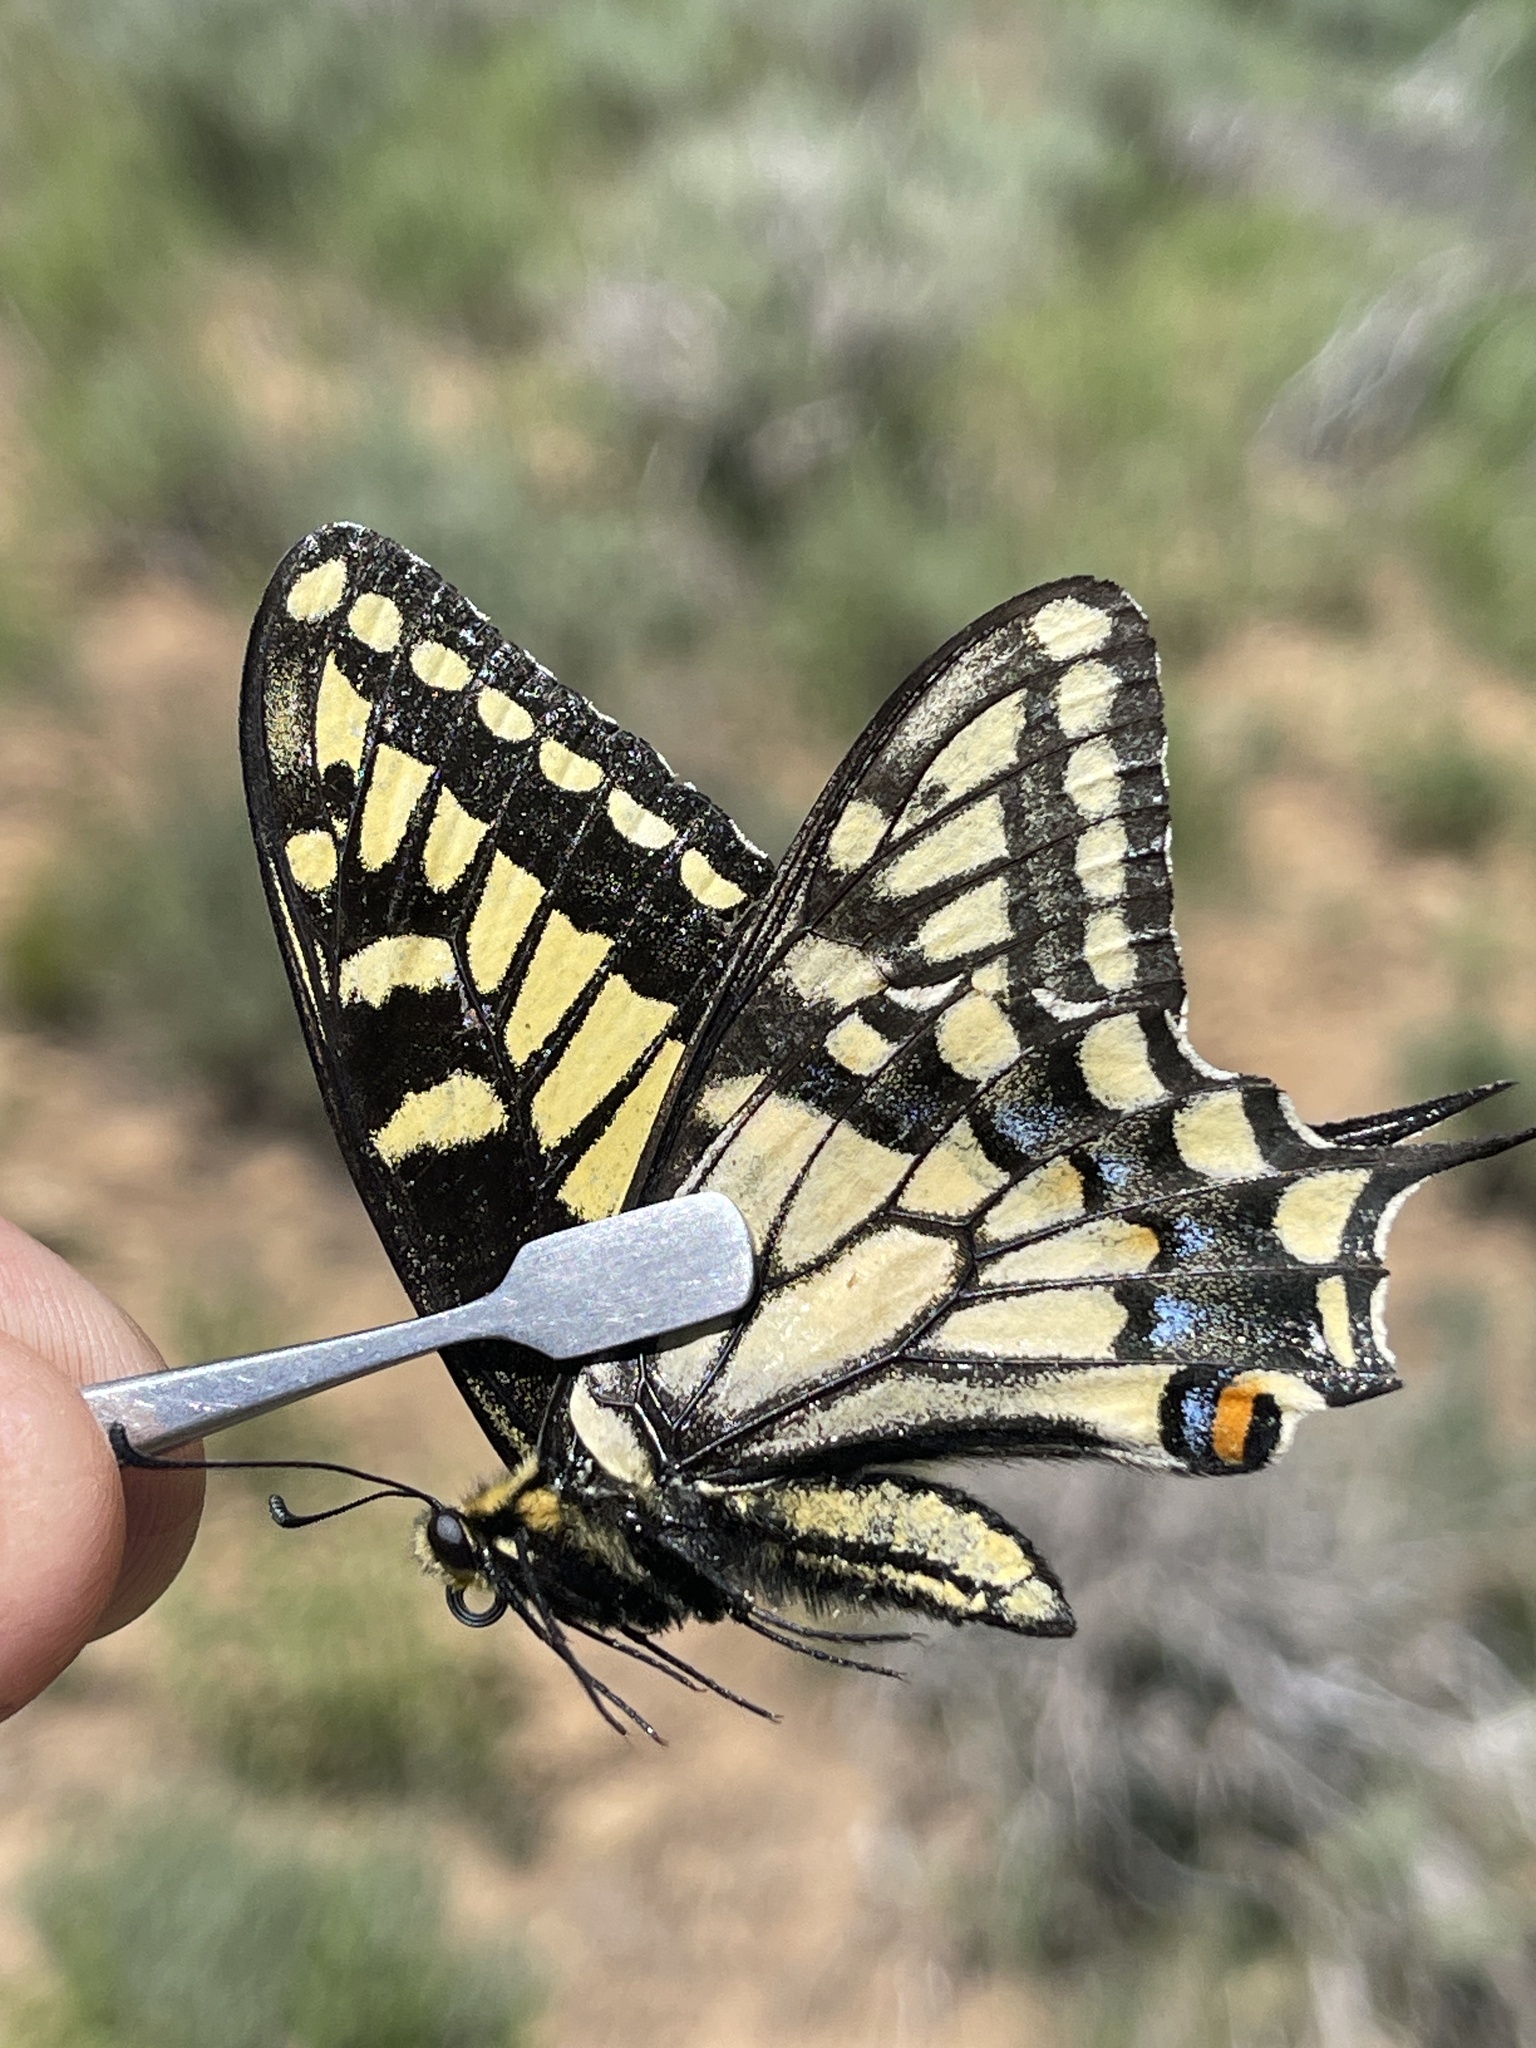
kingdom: Animalia
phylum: Arthropoda
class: Insecta
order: Lepidoptera
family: Papilionidae
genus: Papilio
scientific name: Papilio
